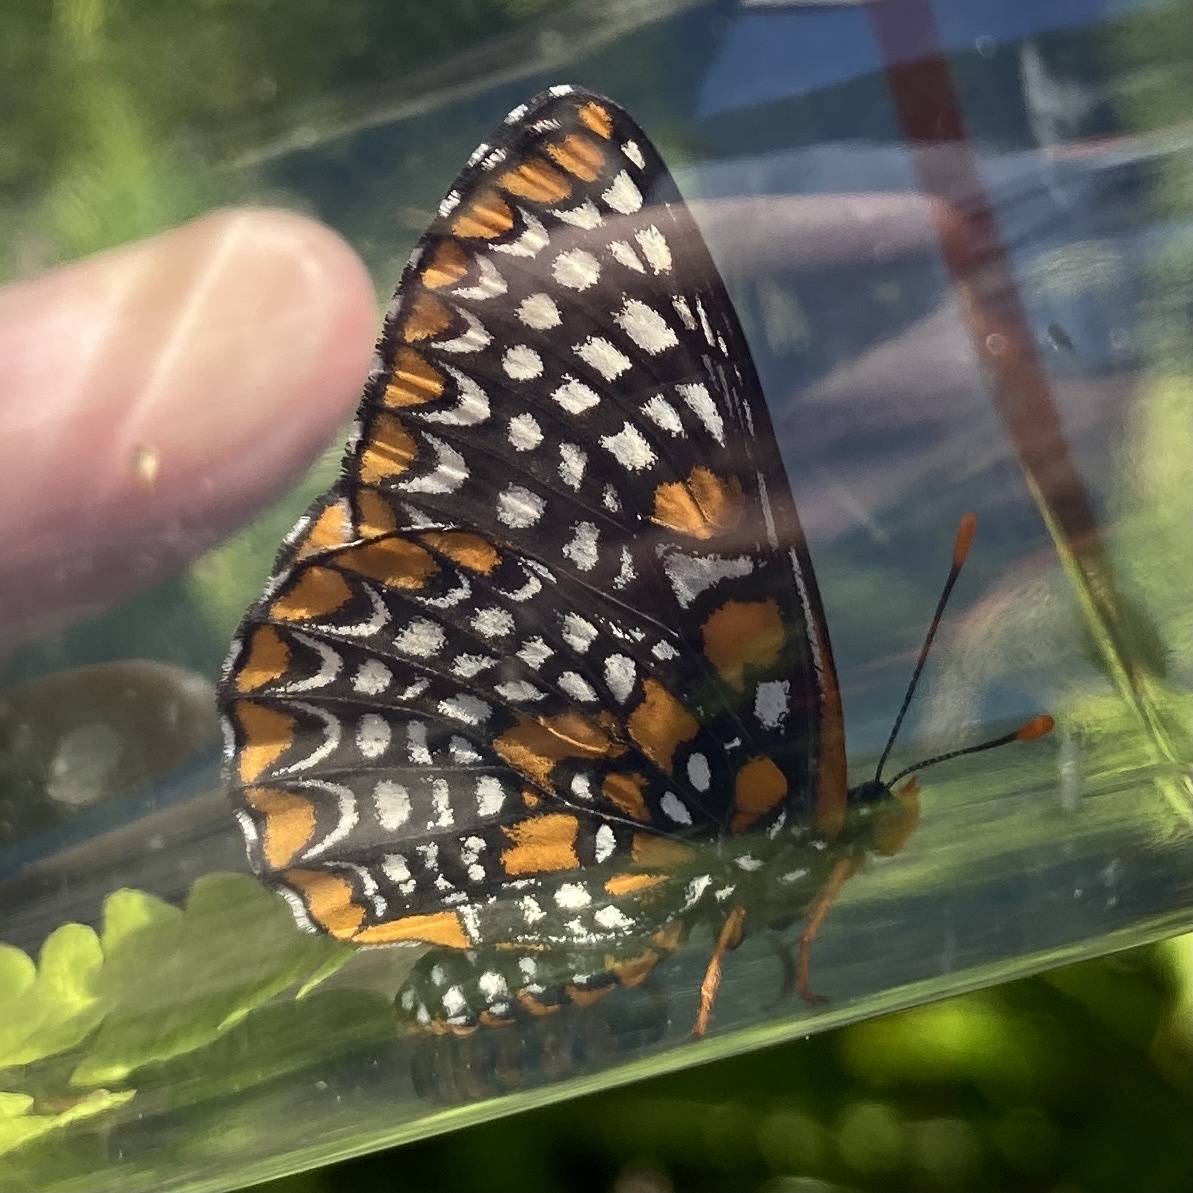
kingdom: Animalia
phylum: Arthropoda
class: Insecta
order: Lepidoptera
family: Nymphalidae
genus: Euphydryas
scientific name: Euphydryas phaeton
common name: Baltimore checkerspot
